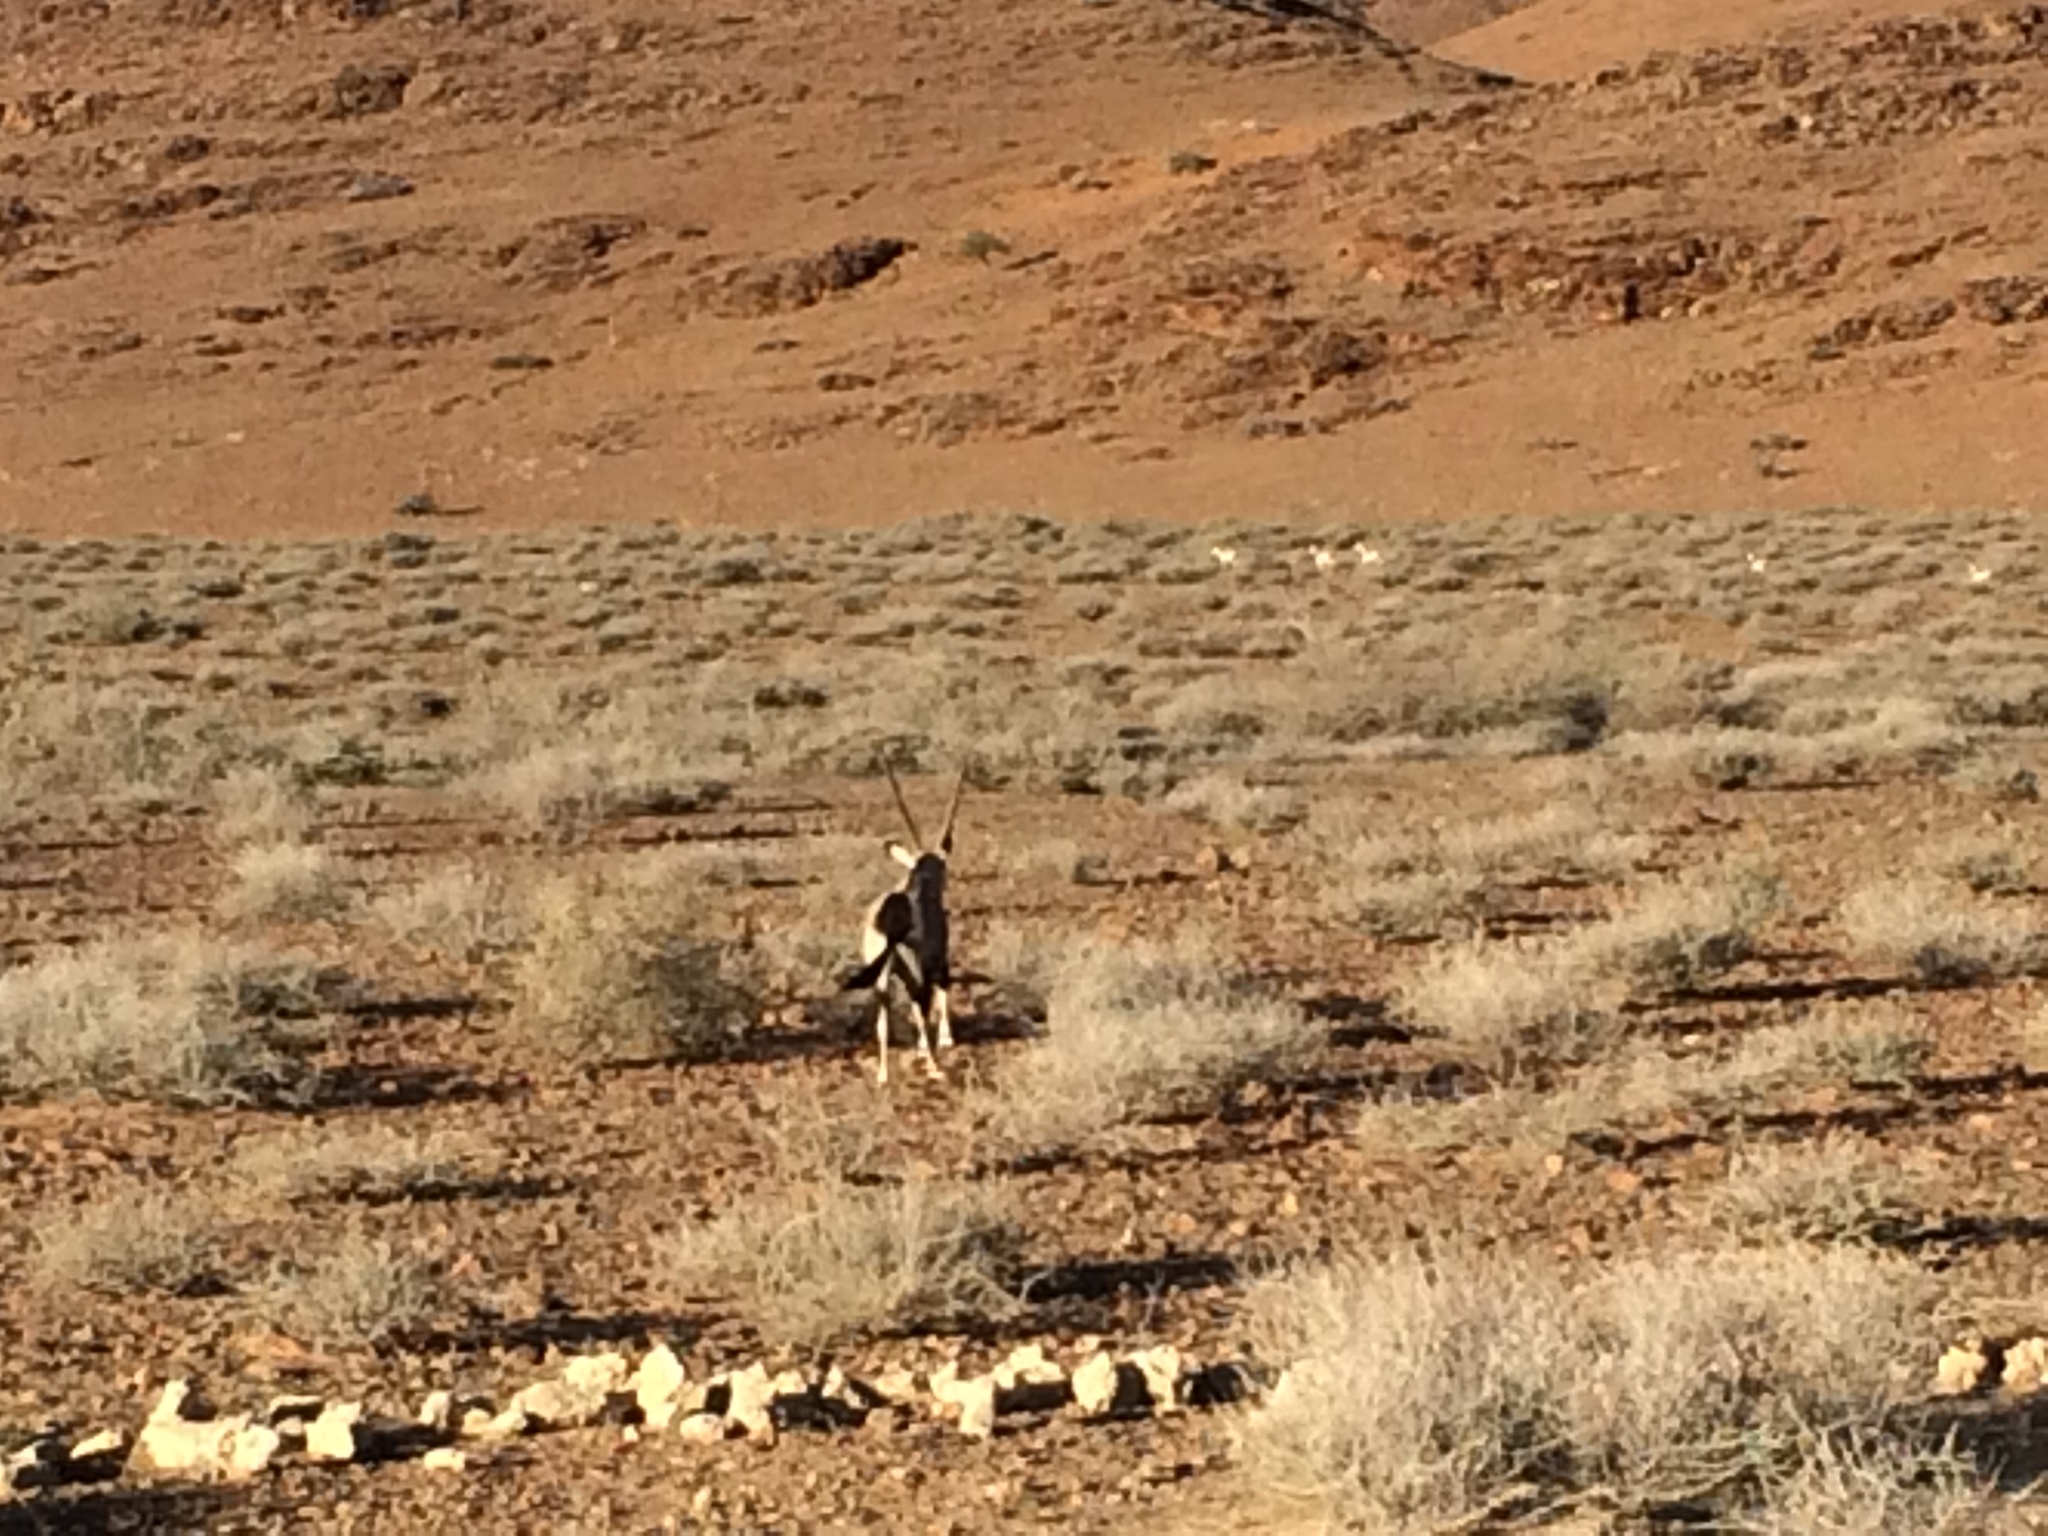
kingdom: Animalia
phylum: Chordata
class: Mammalia
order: Artiodactyla
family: Bovidae
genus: Oryx
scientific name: Oryx gazella
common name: Gemsbok
